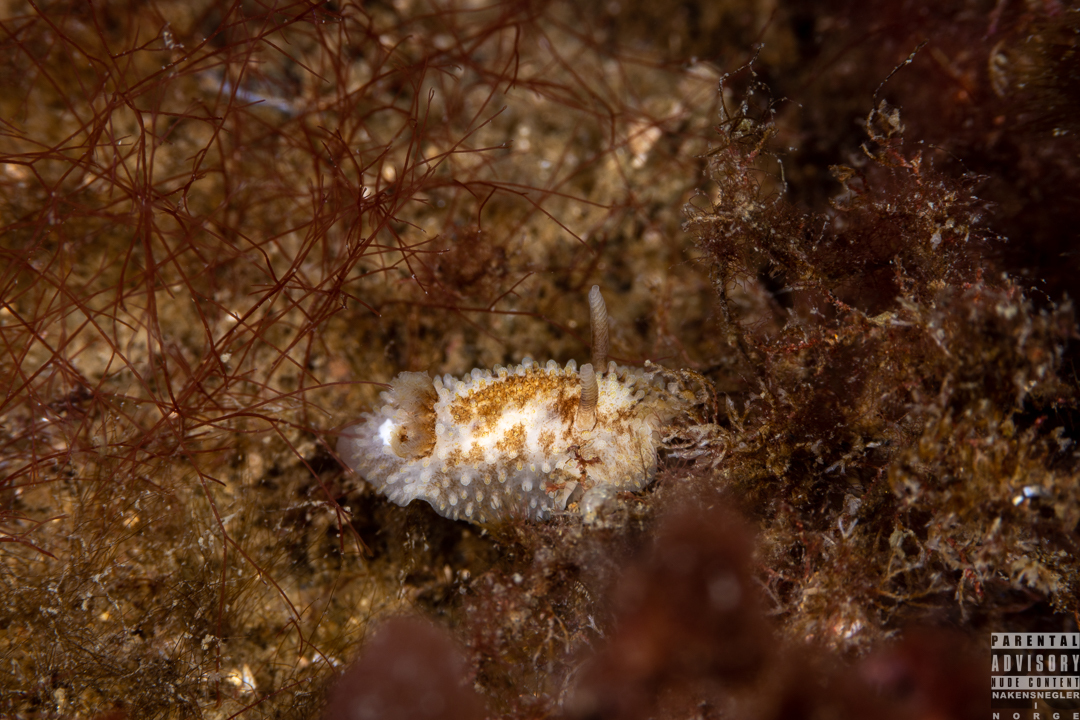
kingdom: Animalia
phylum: Mollusca
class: Gastropoda
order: Nudibranchia
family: Onchidorididae
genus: Onchidoris
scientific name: Onchidoris bilamellata
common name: Barnacle-eating onchidoris
